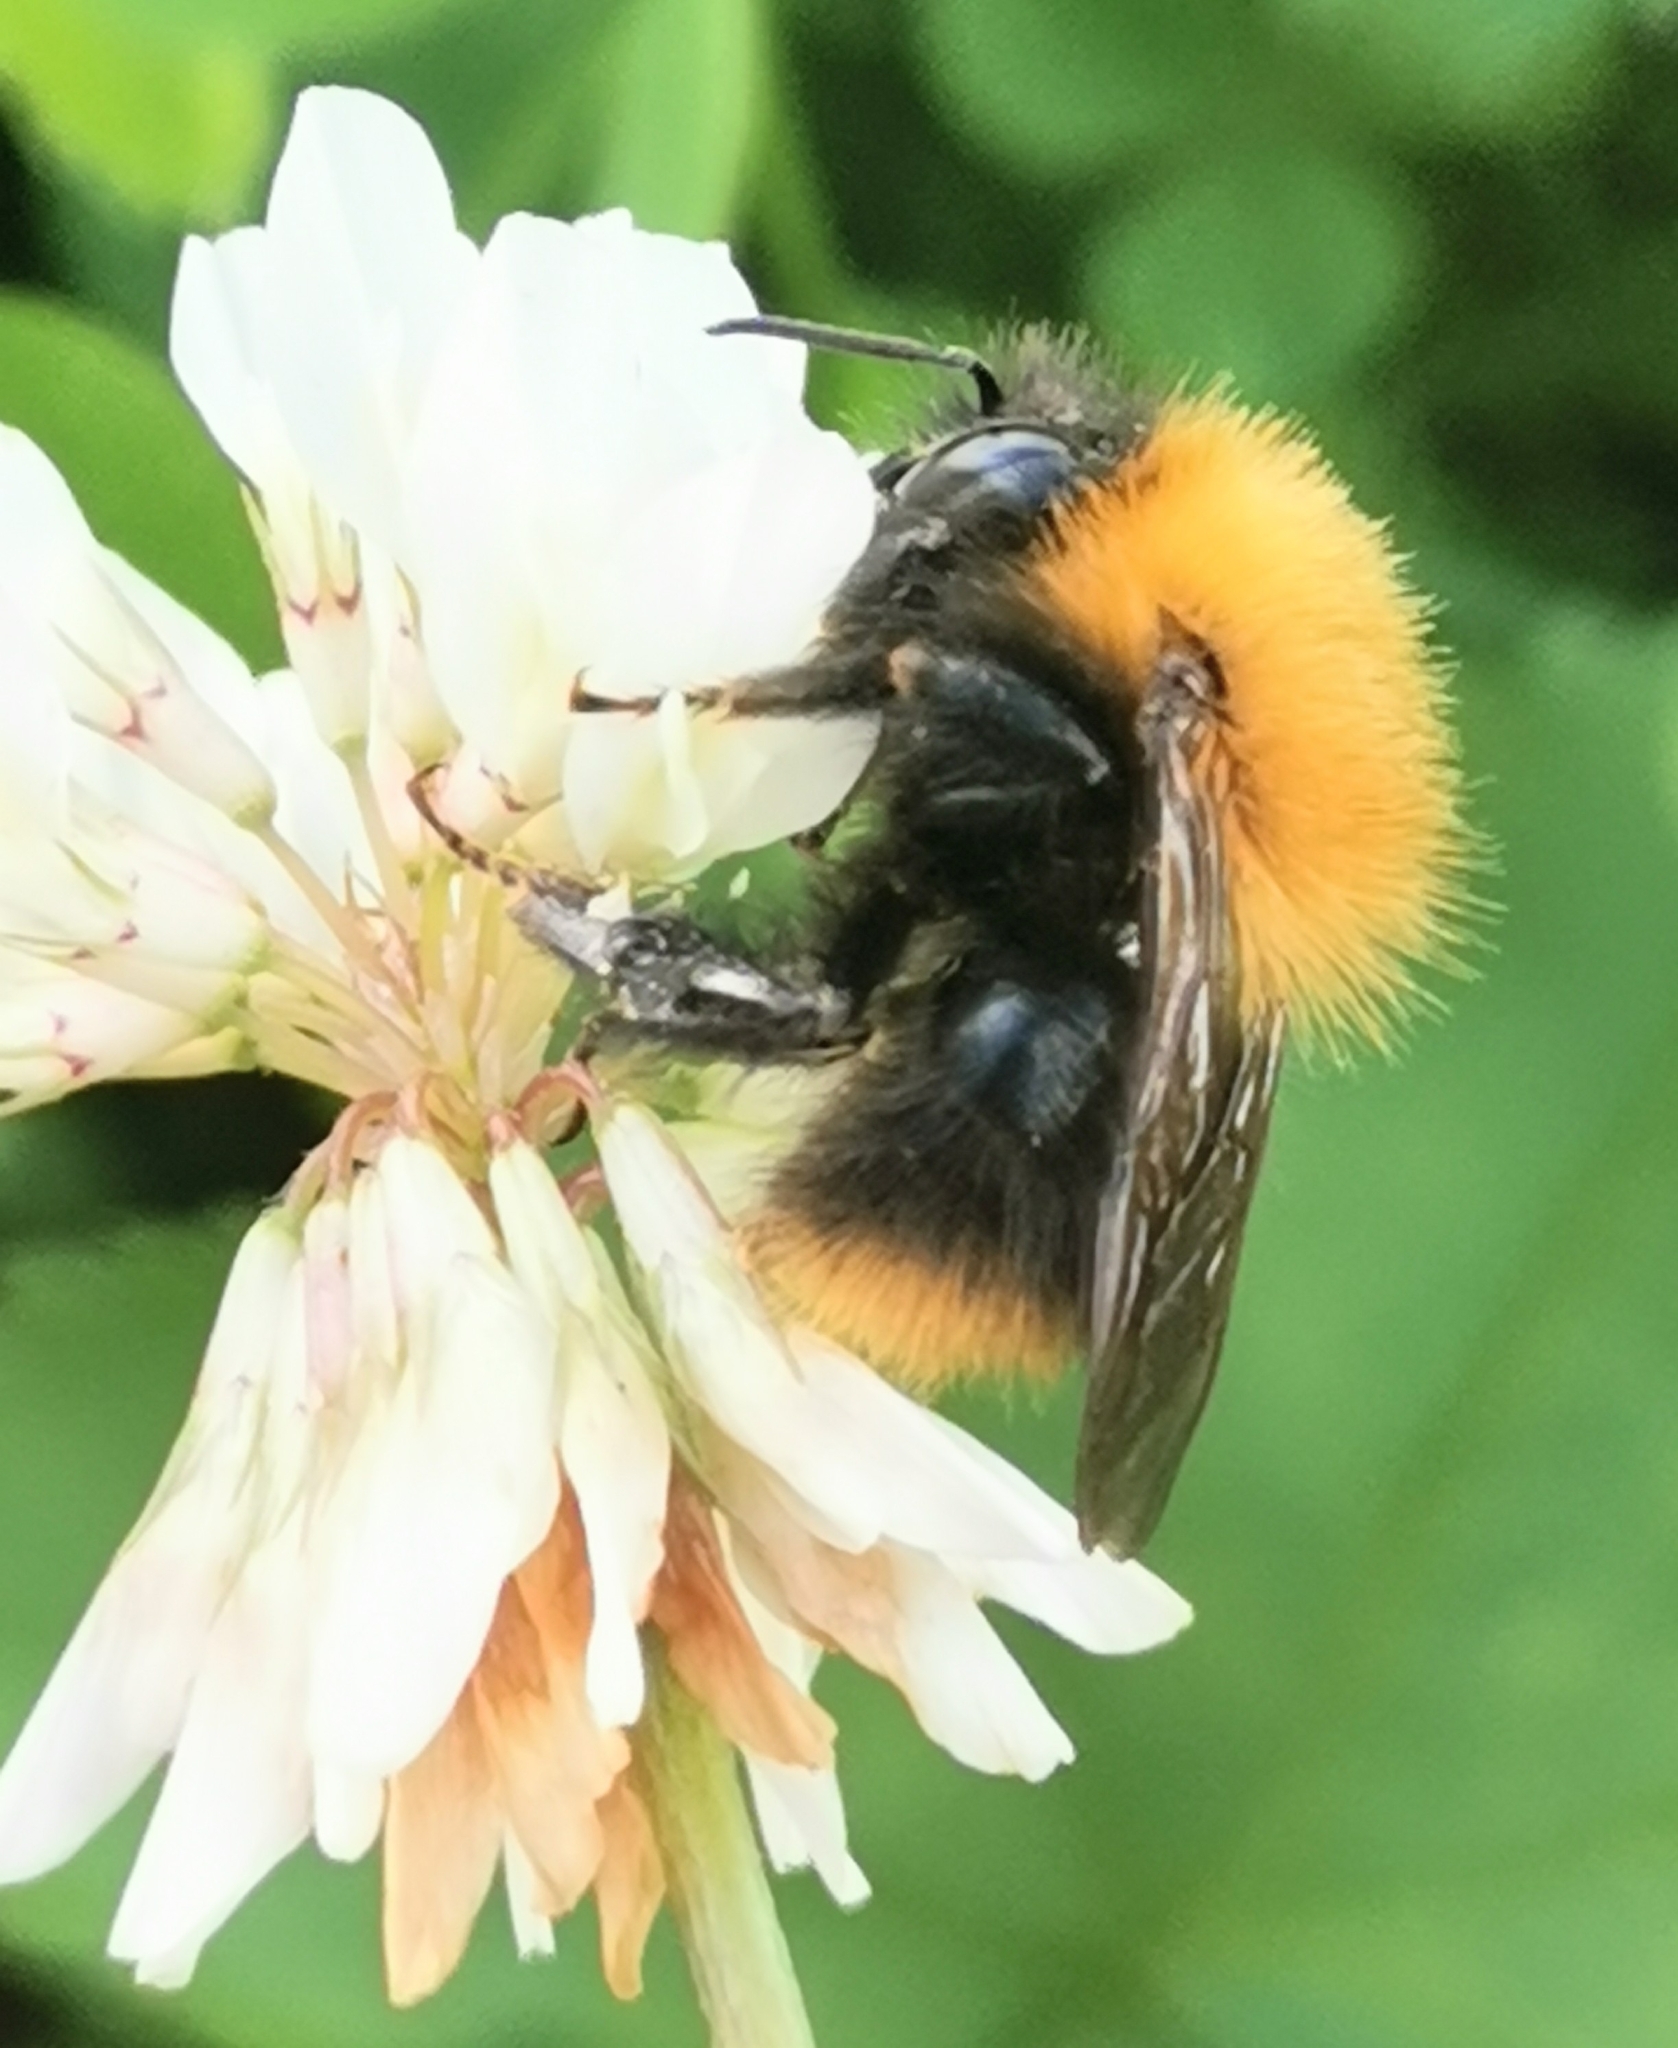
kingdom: Animalia
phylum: Arthropoda
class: Insecta
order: Hymenoptera
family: Apidae
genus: Bombus
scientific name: Bombus pascuorum
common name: Common carder bee
